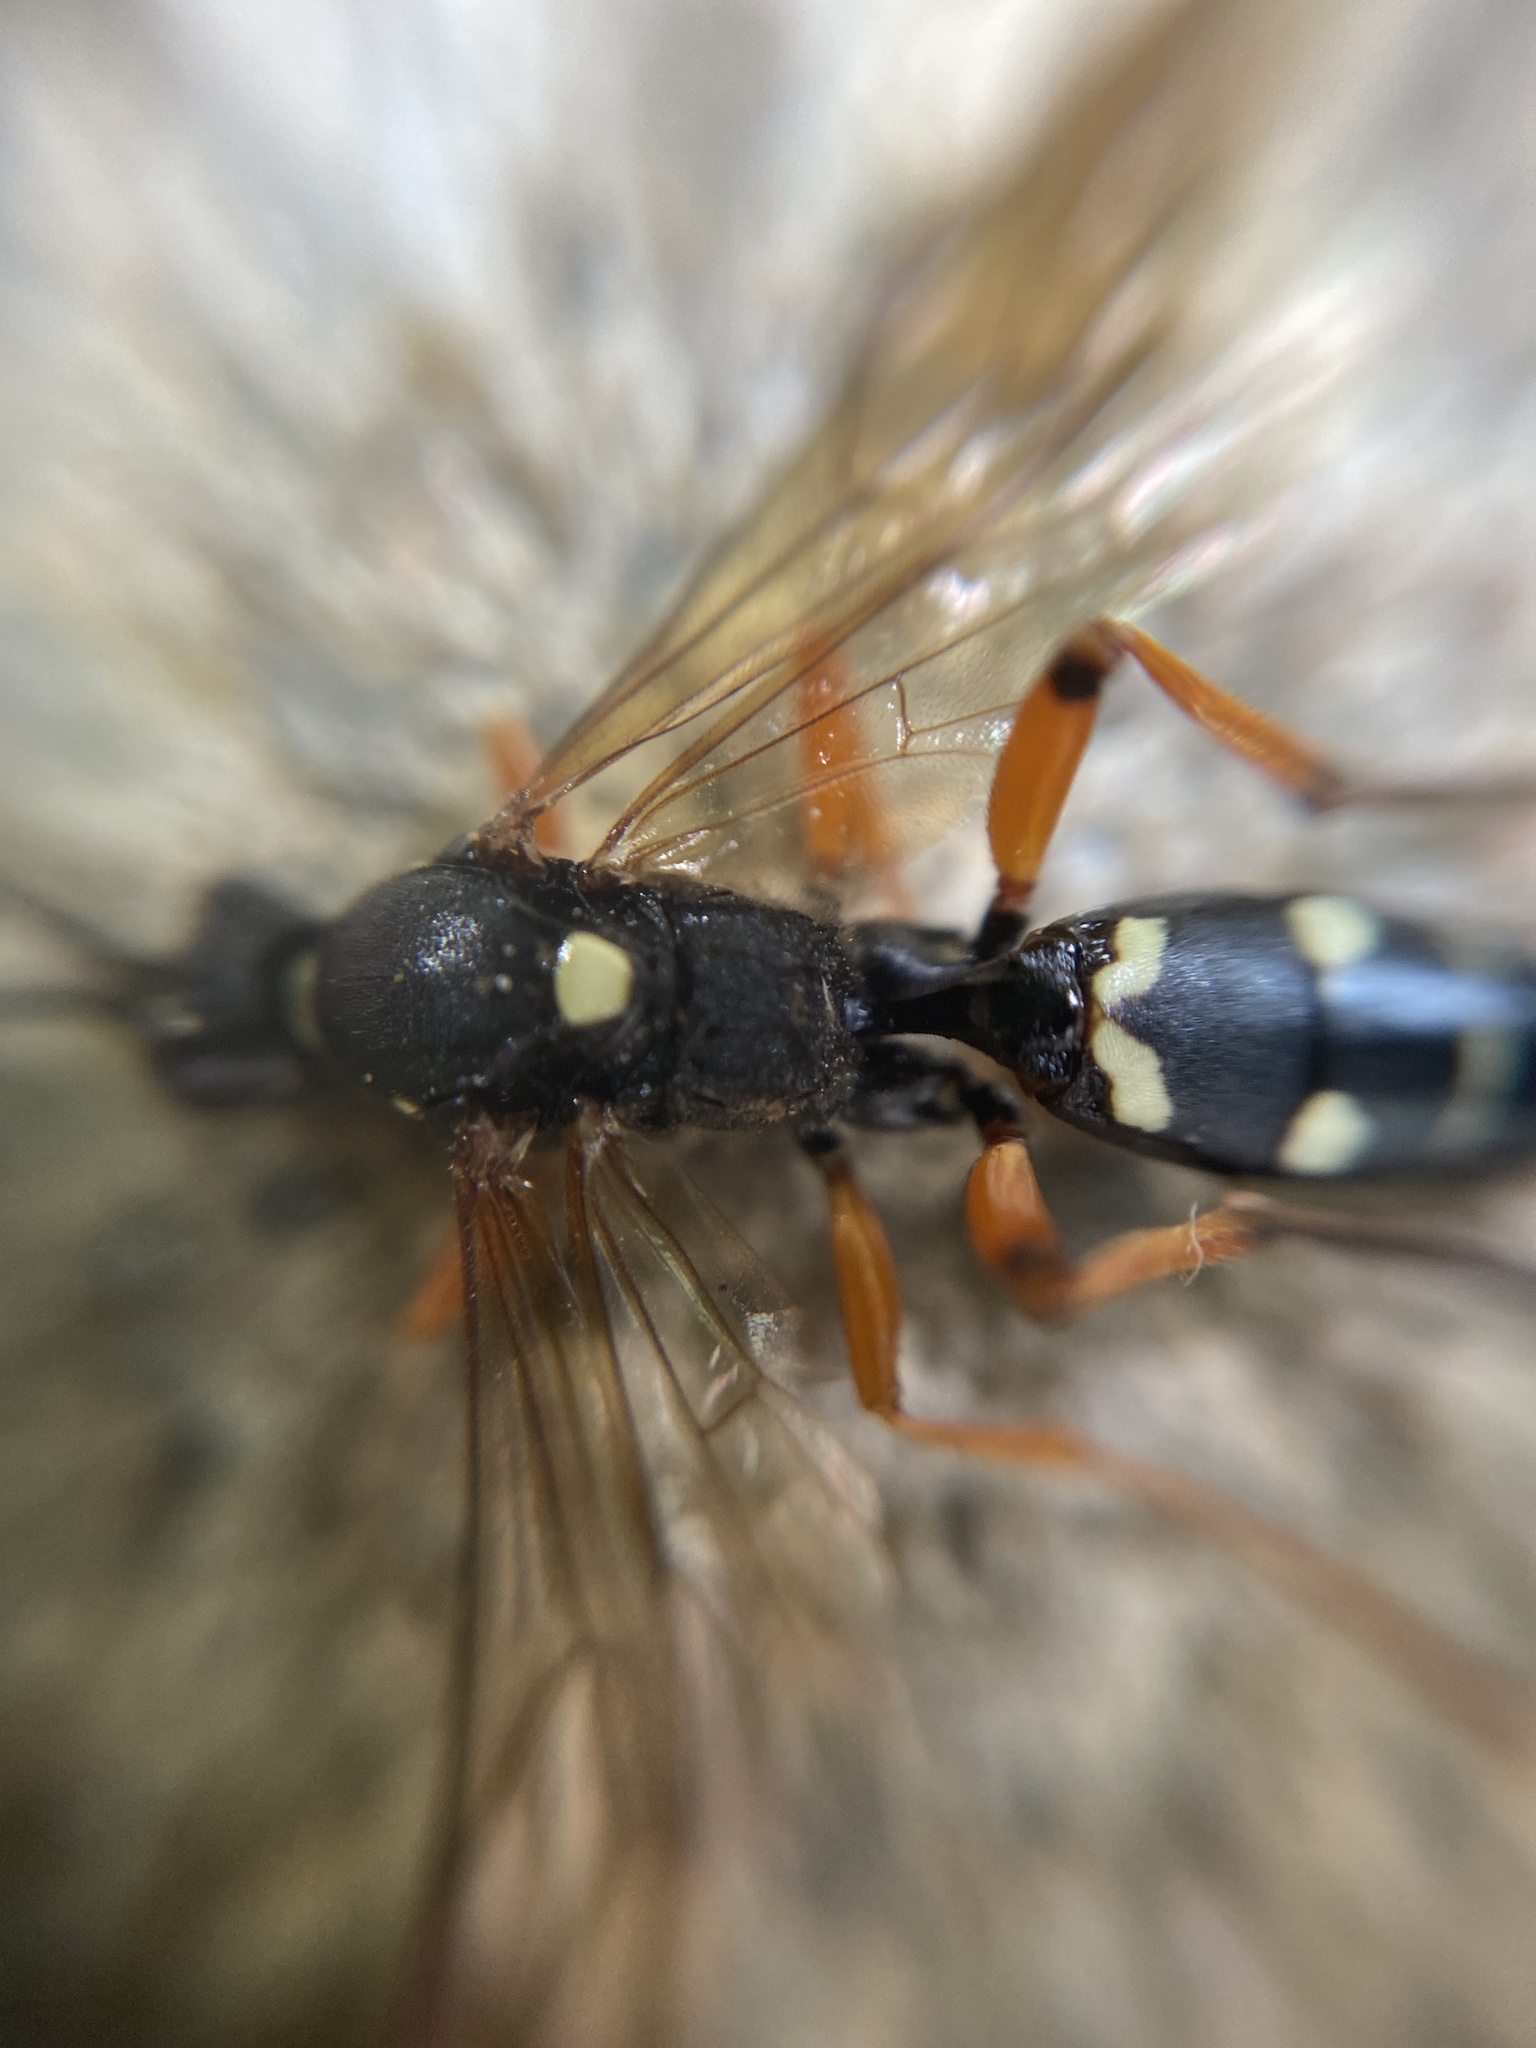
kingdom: Animalia
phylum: Arthropoda
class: Insecta
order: Hymenoptera
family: Ichneumonidae
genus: Diphyus
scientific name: Diphyus quadripunctorius
